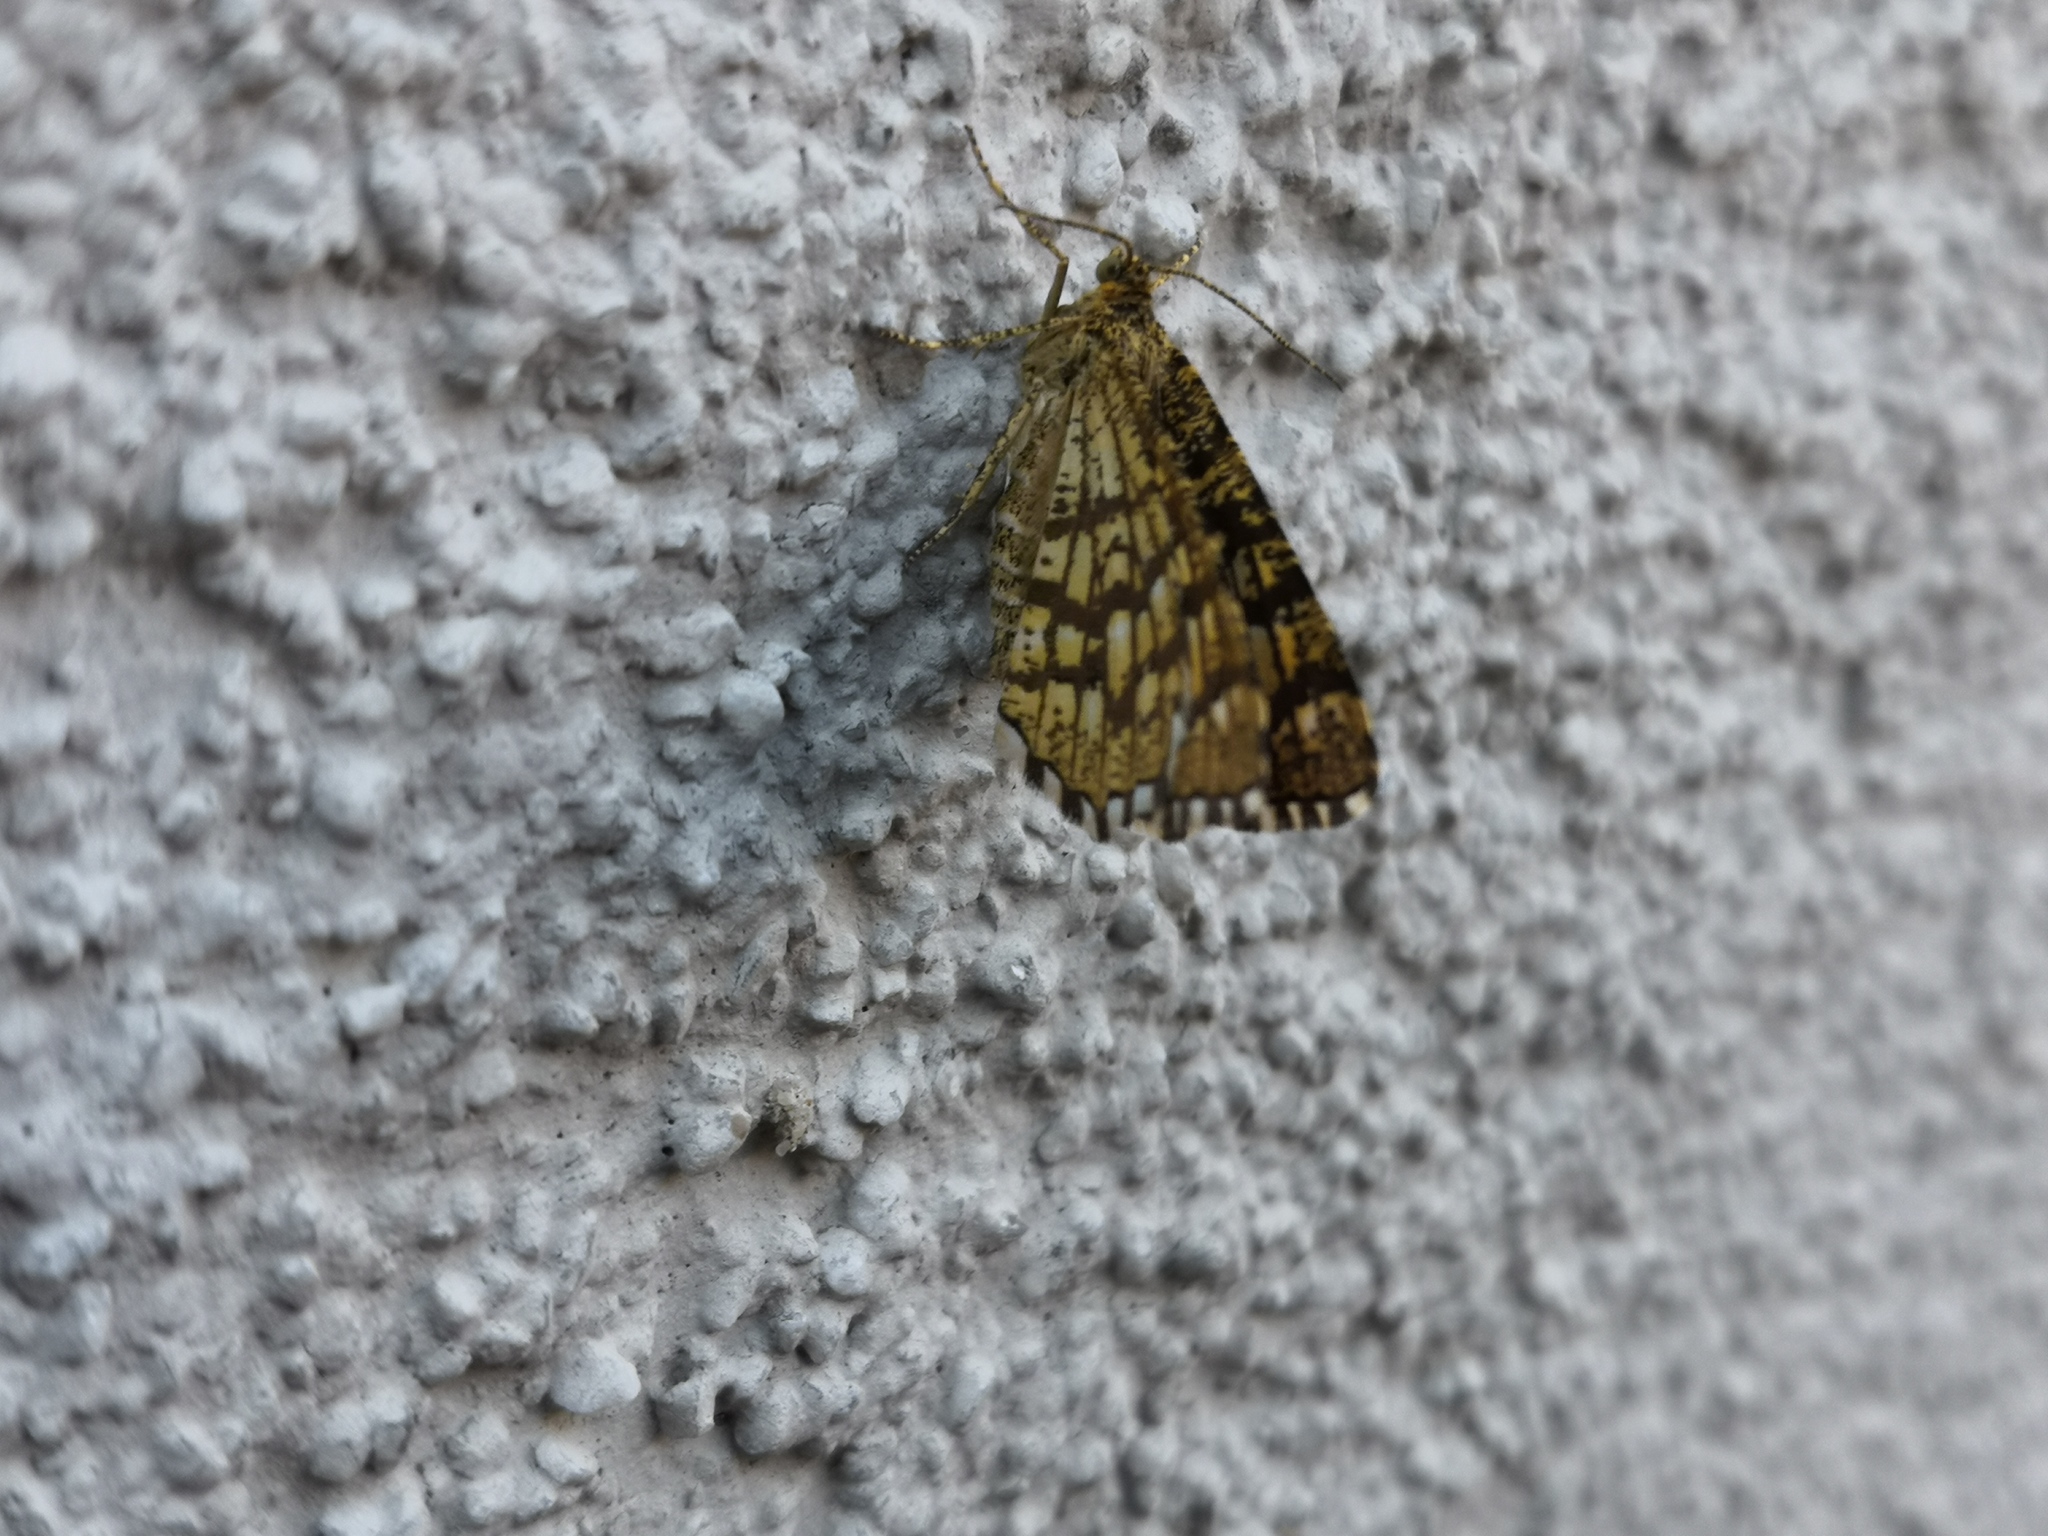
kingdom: Animalia
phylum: Arthropoda
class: Insecta
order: Lepidoptera
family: Geometridae
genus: Chiasmia
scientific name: Chiasmia clathrata
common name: Latticed heath
